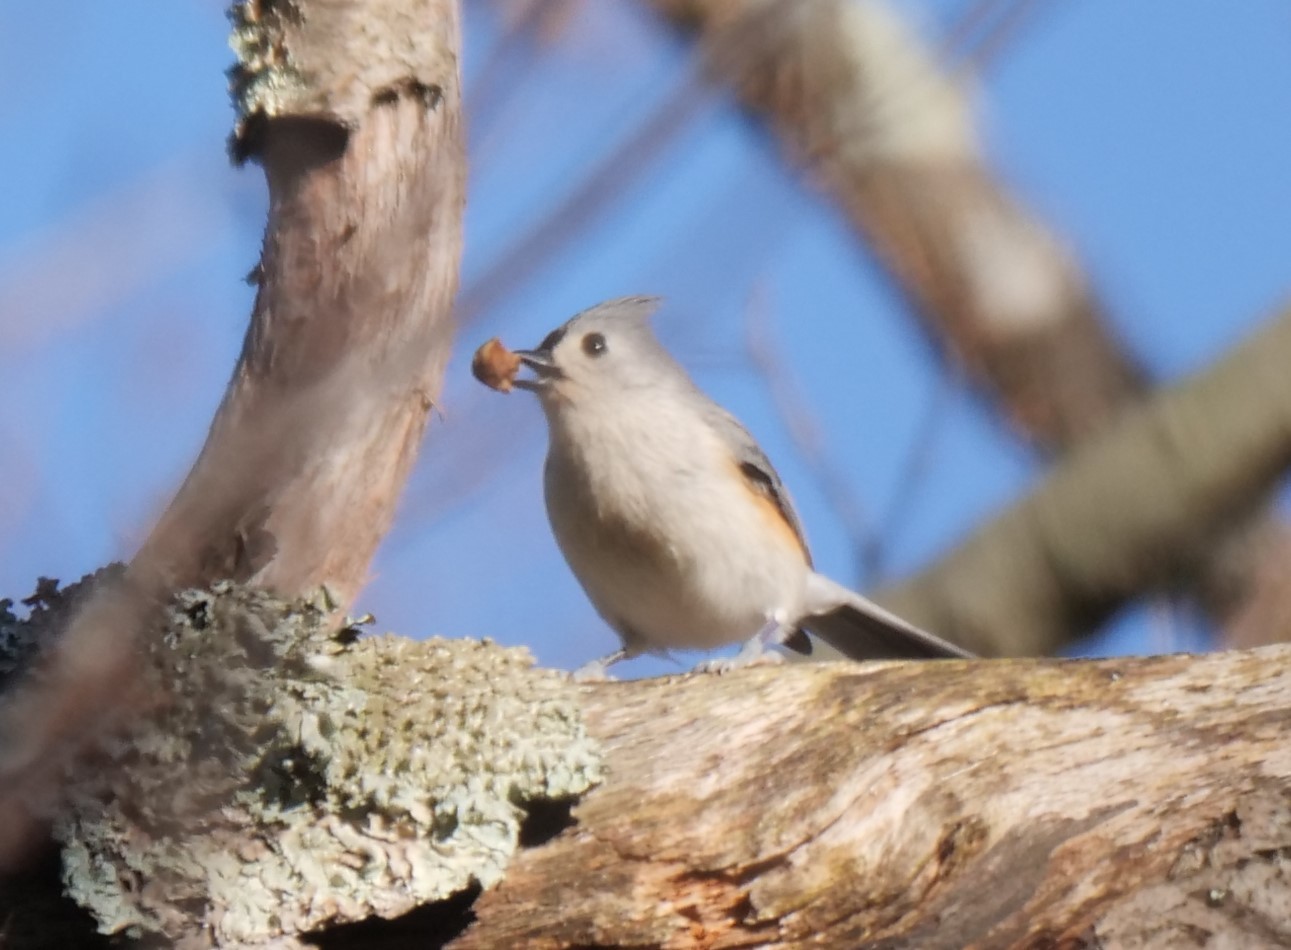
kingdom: Animalia
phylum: Chordata
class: Aves
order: Passeriformes
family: Paridae
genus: Baeolophus
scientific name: Baeolophus bicolor
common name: Tufted titmouse
